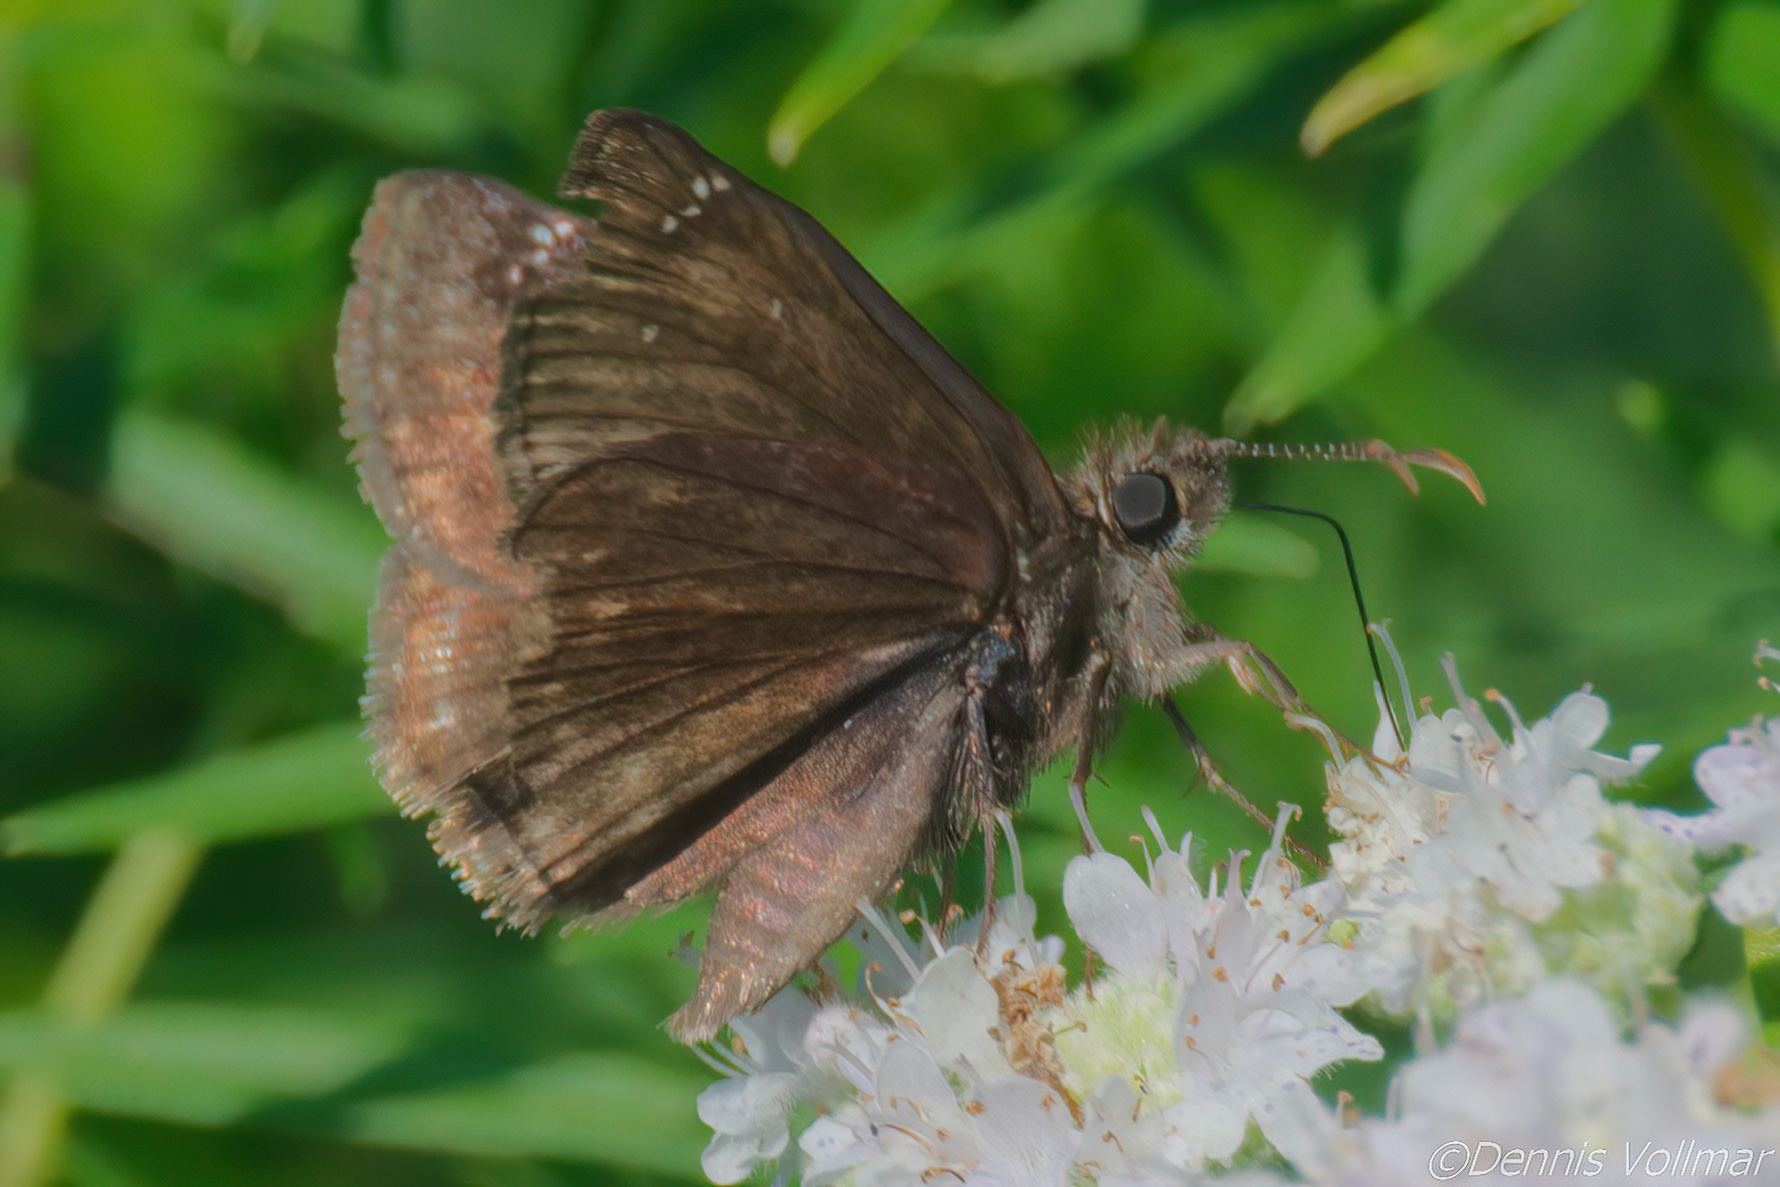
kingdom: Animalia
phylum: Arthropoda
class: Insecta
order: Lepidoptera
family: Hesperiidae
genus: Erynnis
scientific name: Erynnis baptisiae
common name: Wild indigo duskywing
